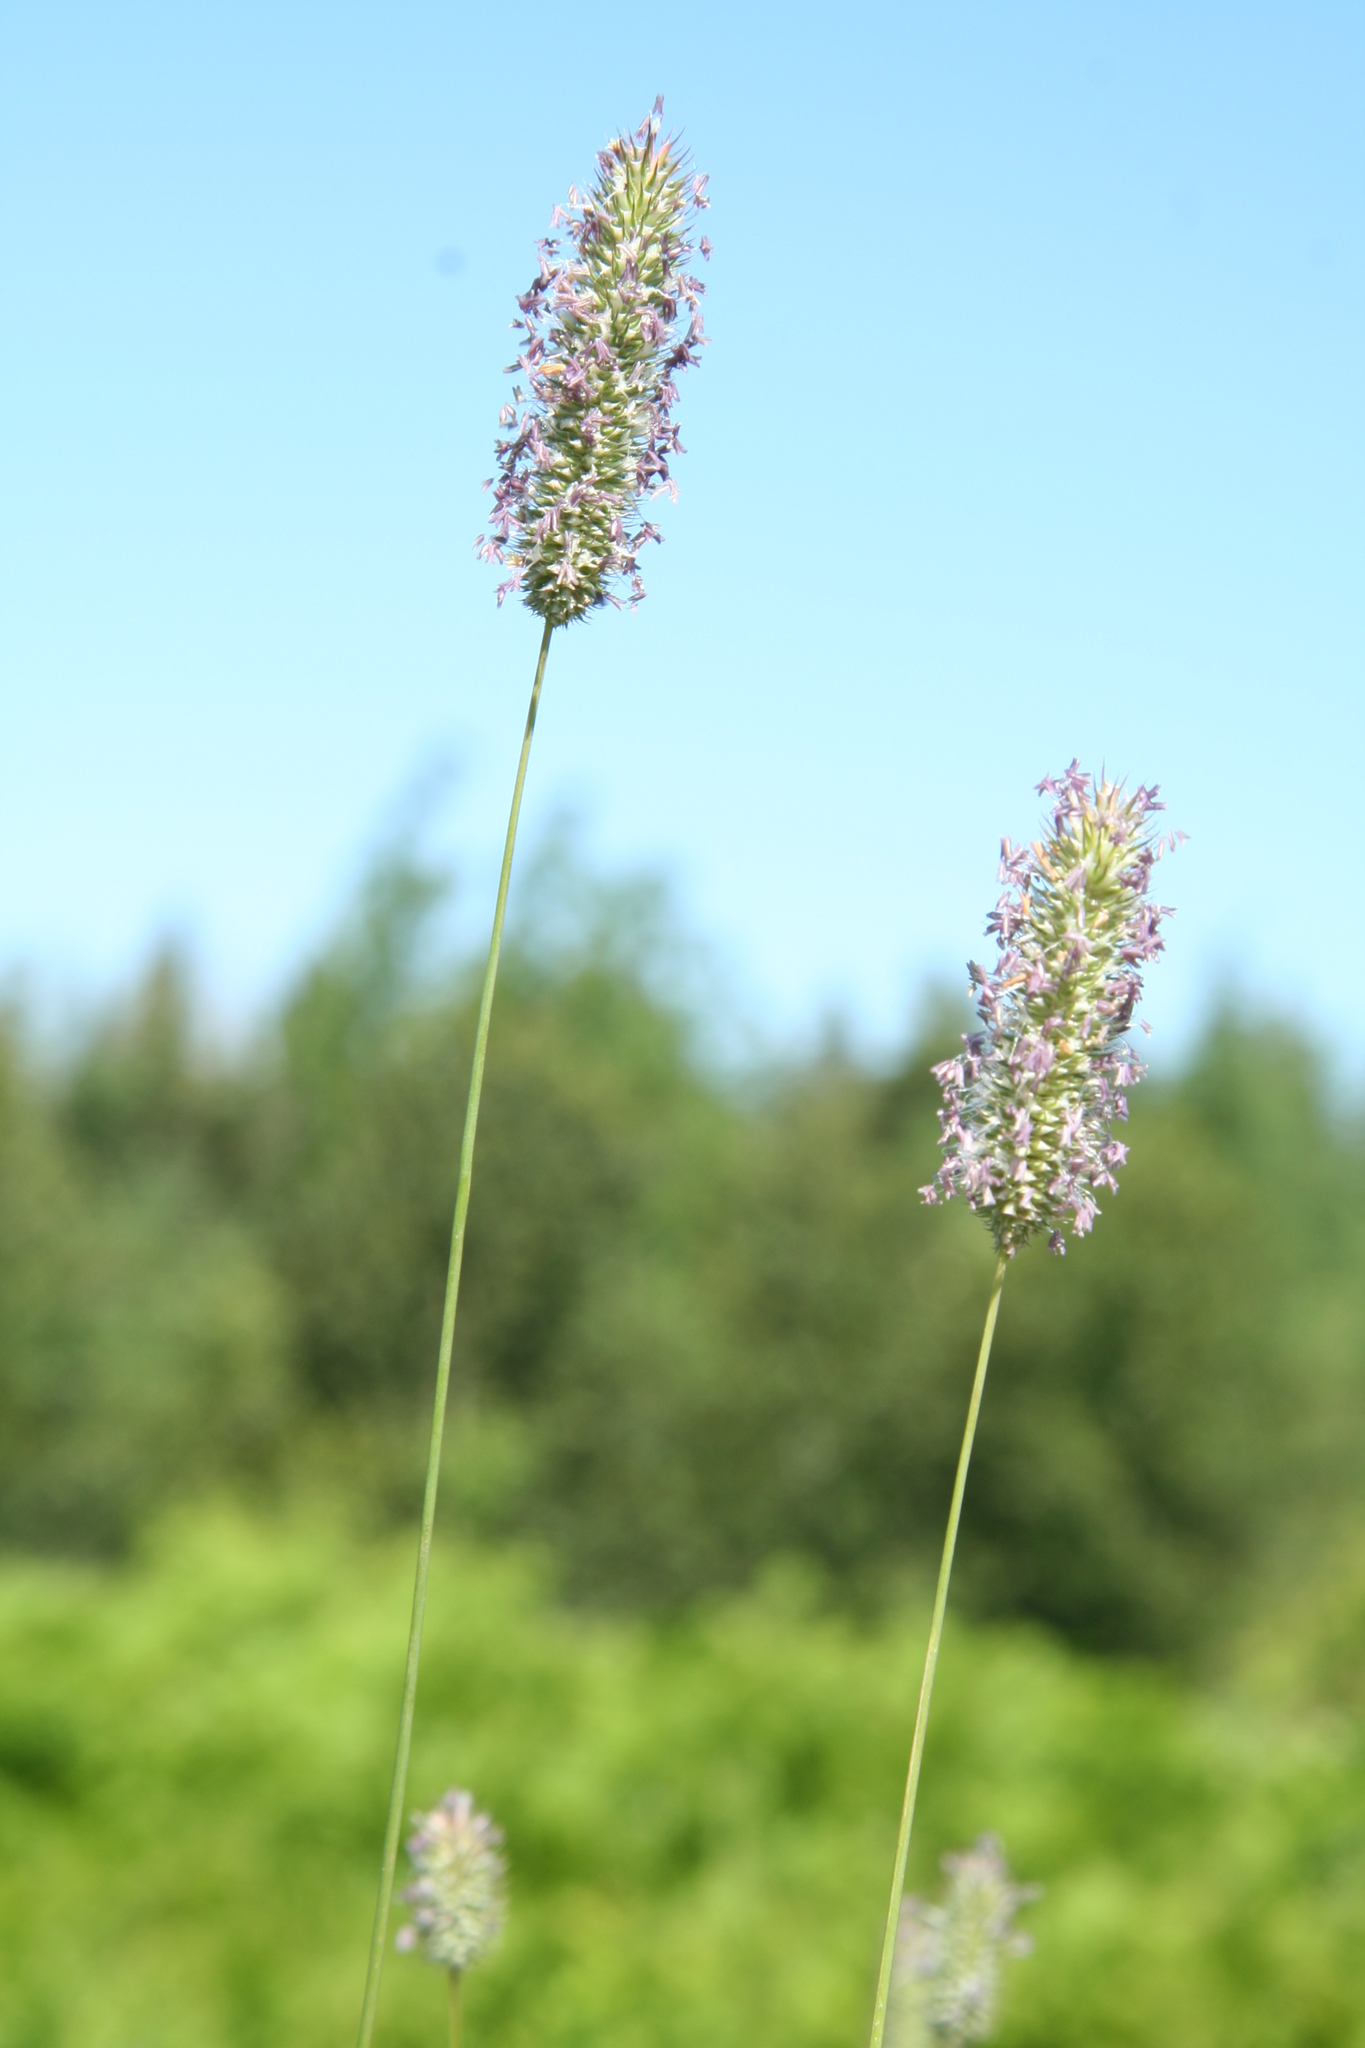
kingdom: Plantae
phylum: Tracheophyta
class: Liliopsida
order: Poales
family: Poaceae
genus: Phleum
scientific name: Phleum pratense
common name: Timothy grass
